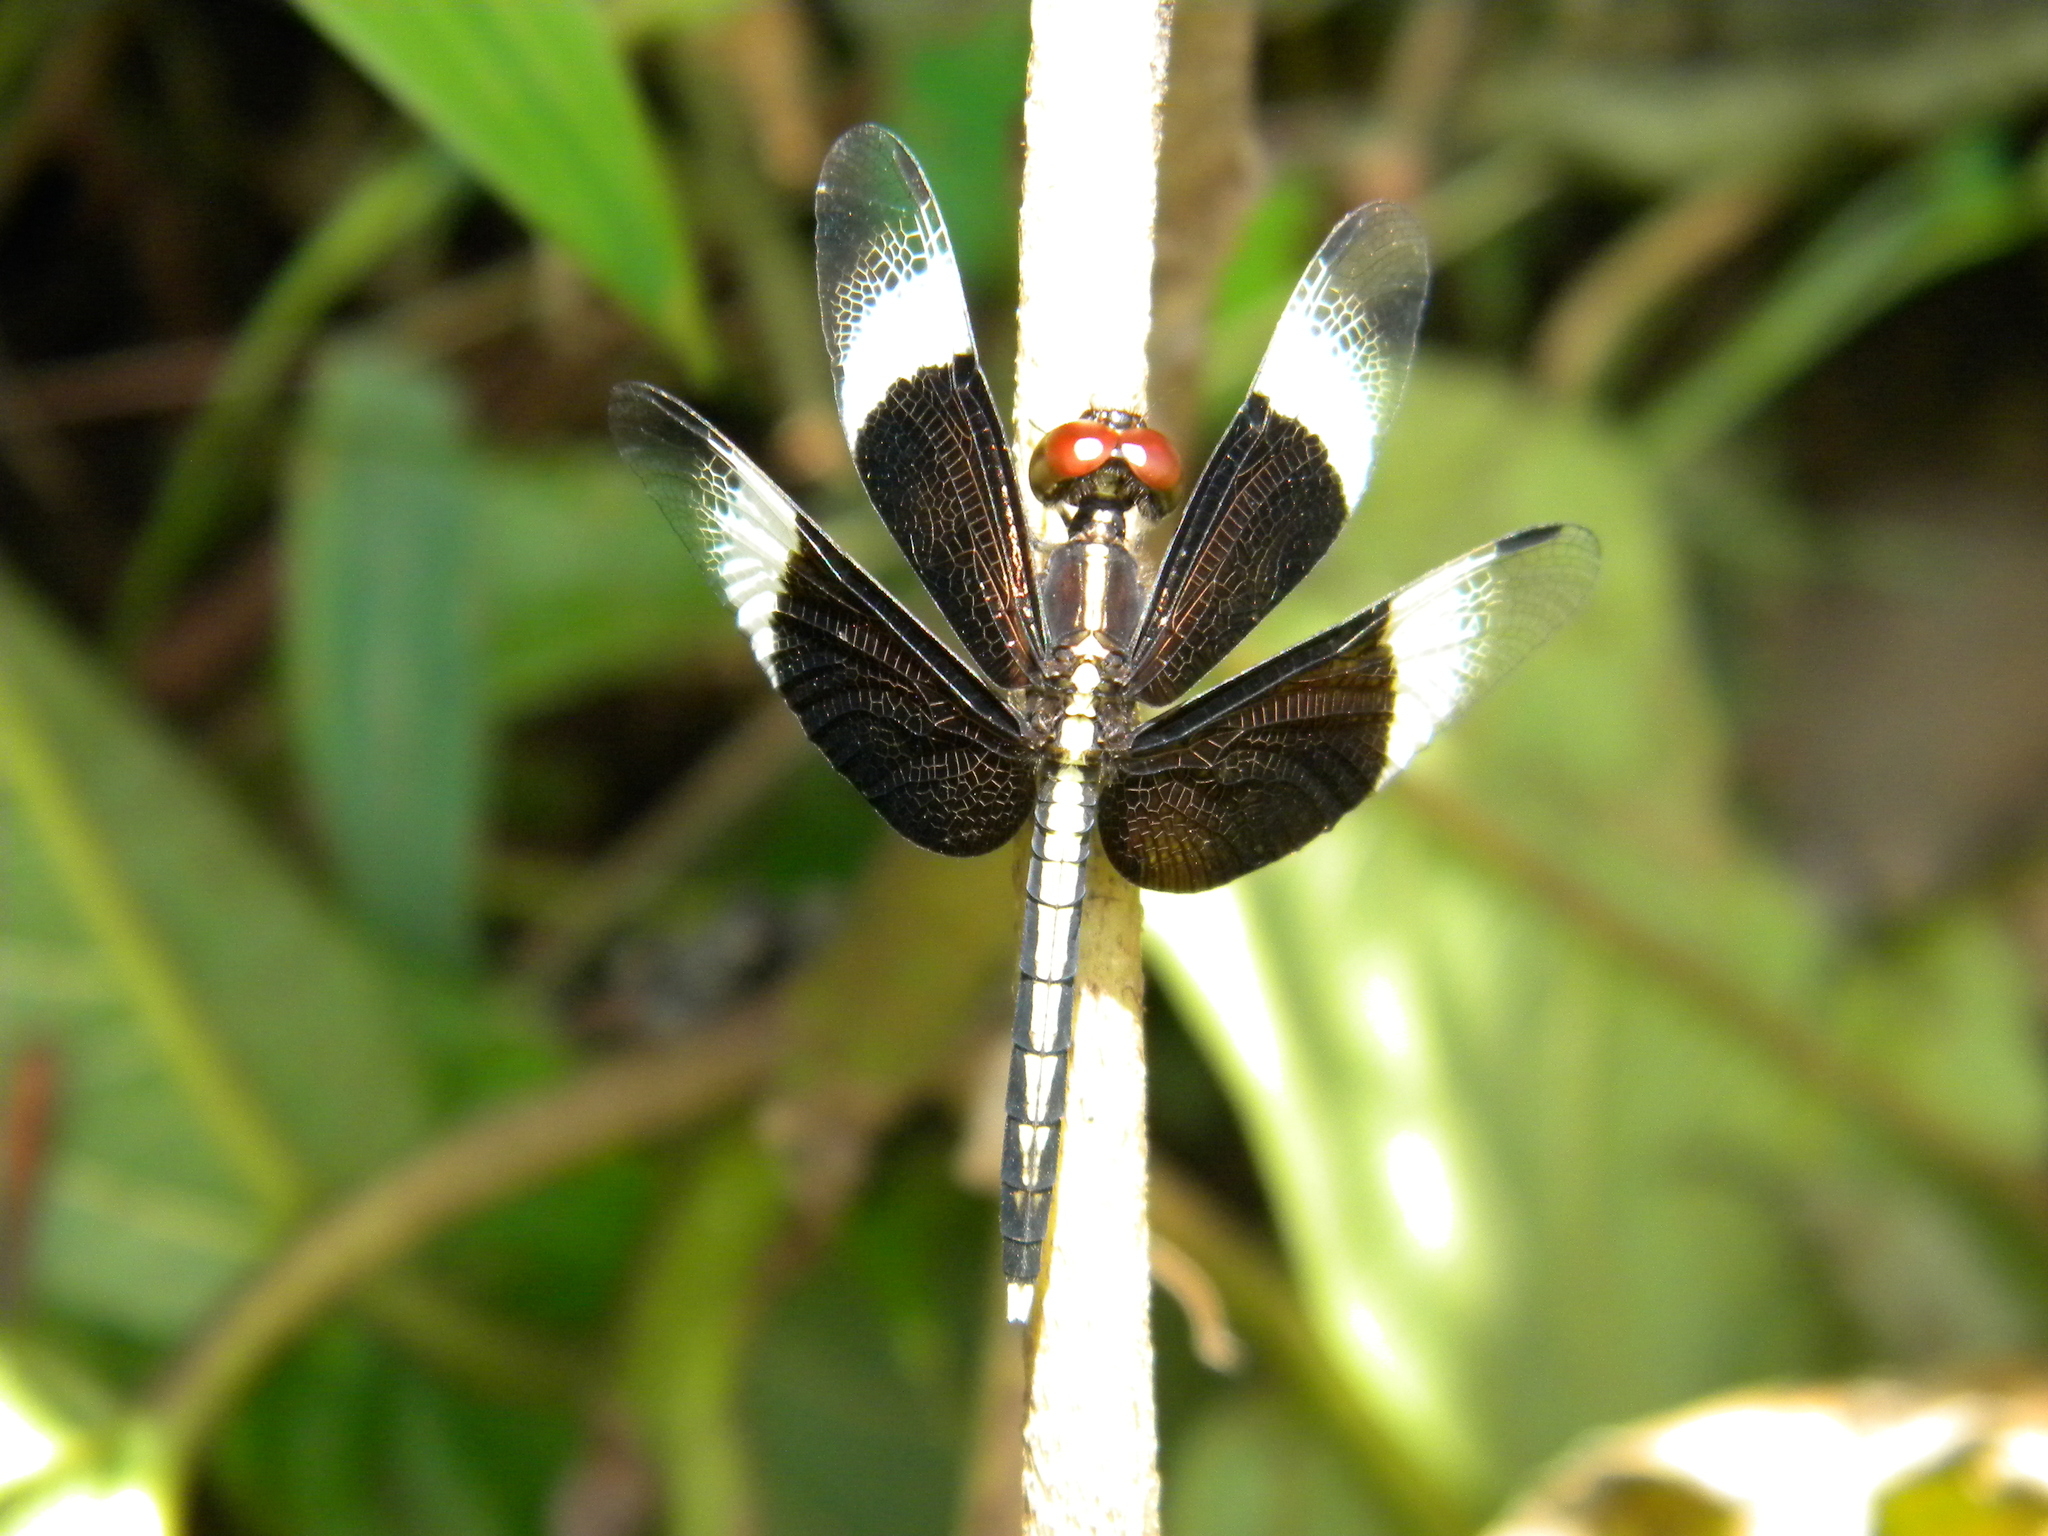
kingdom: Animalia
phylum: Arthropoda
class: Insecta
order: Odonata
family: Libellulidae
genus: Neurothemis
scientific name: Neurothemis tullia
